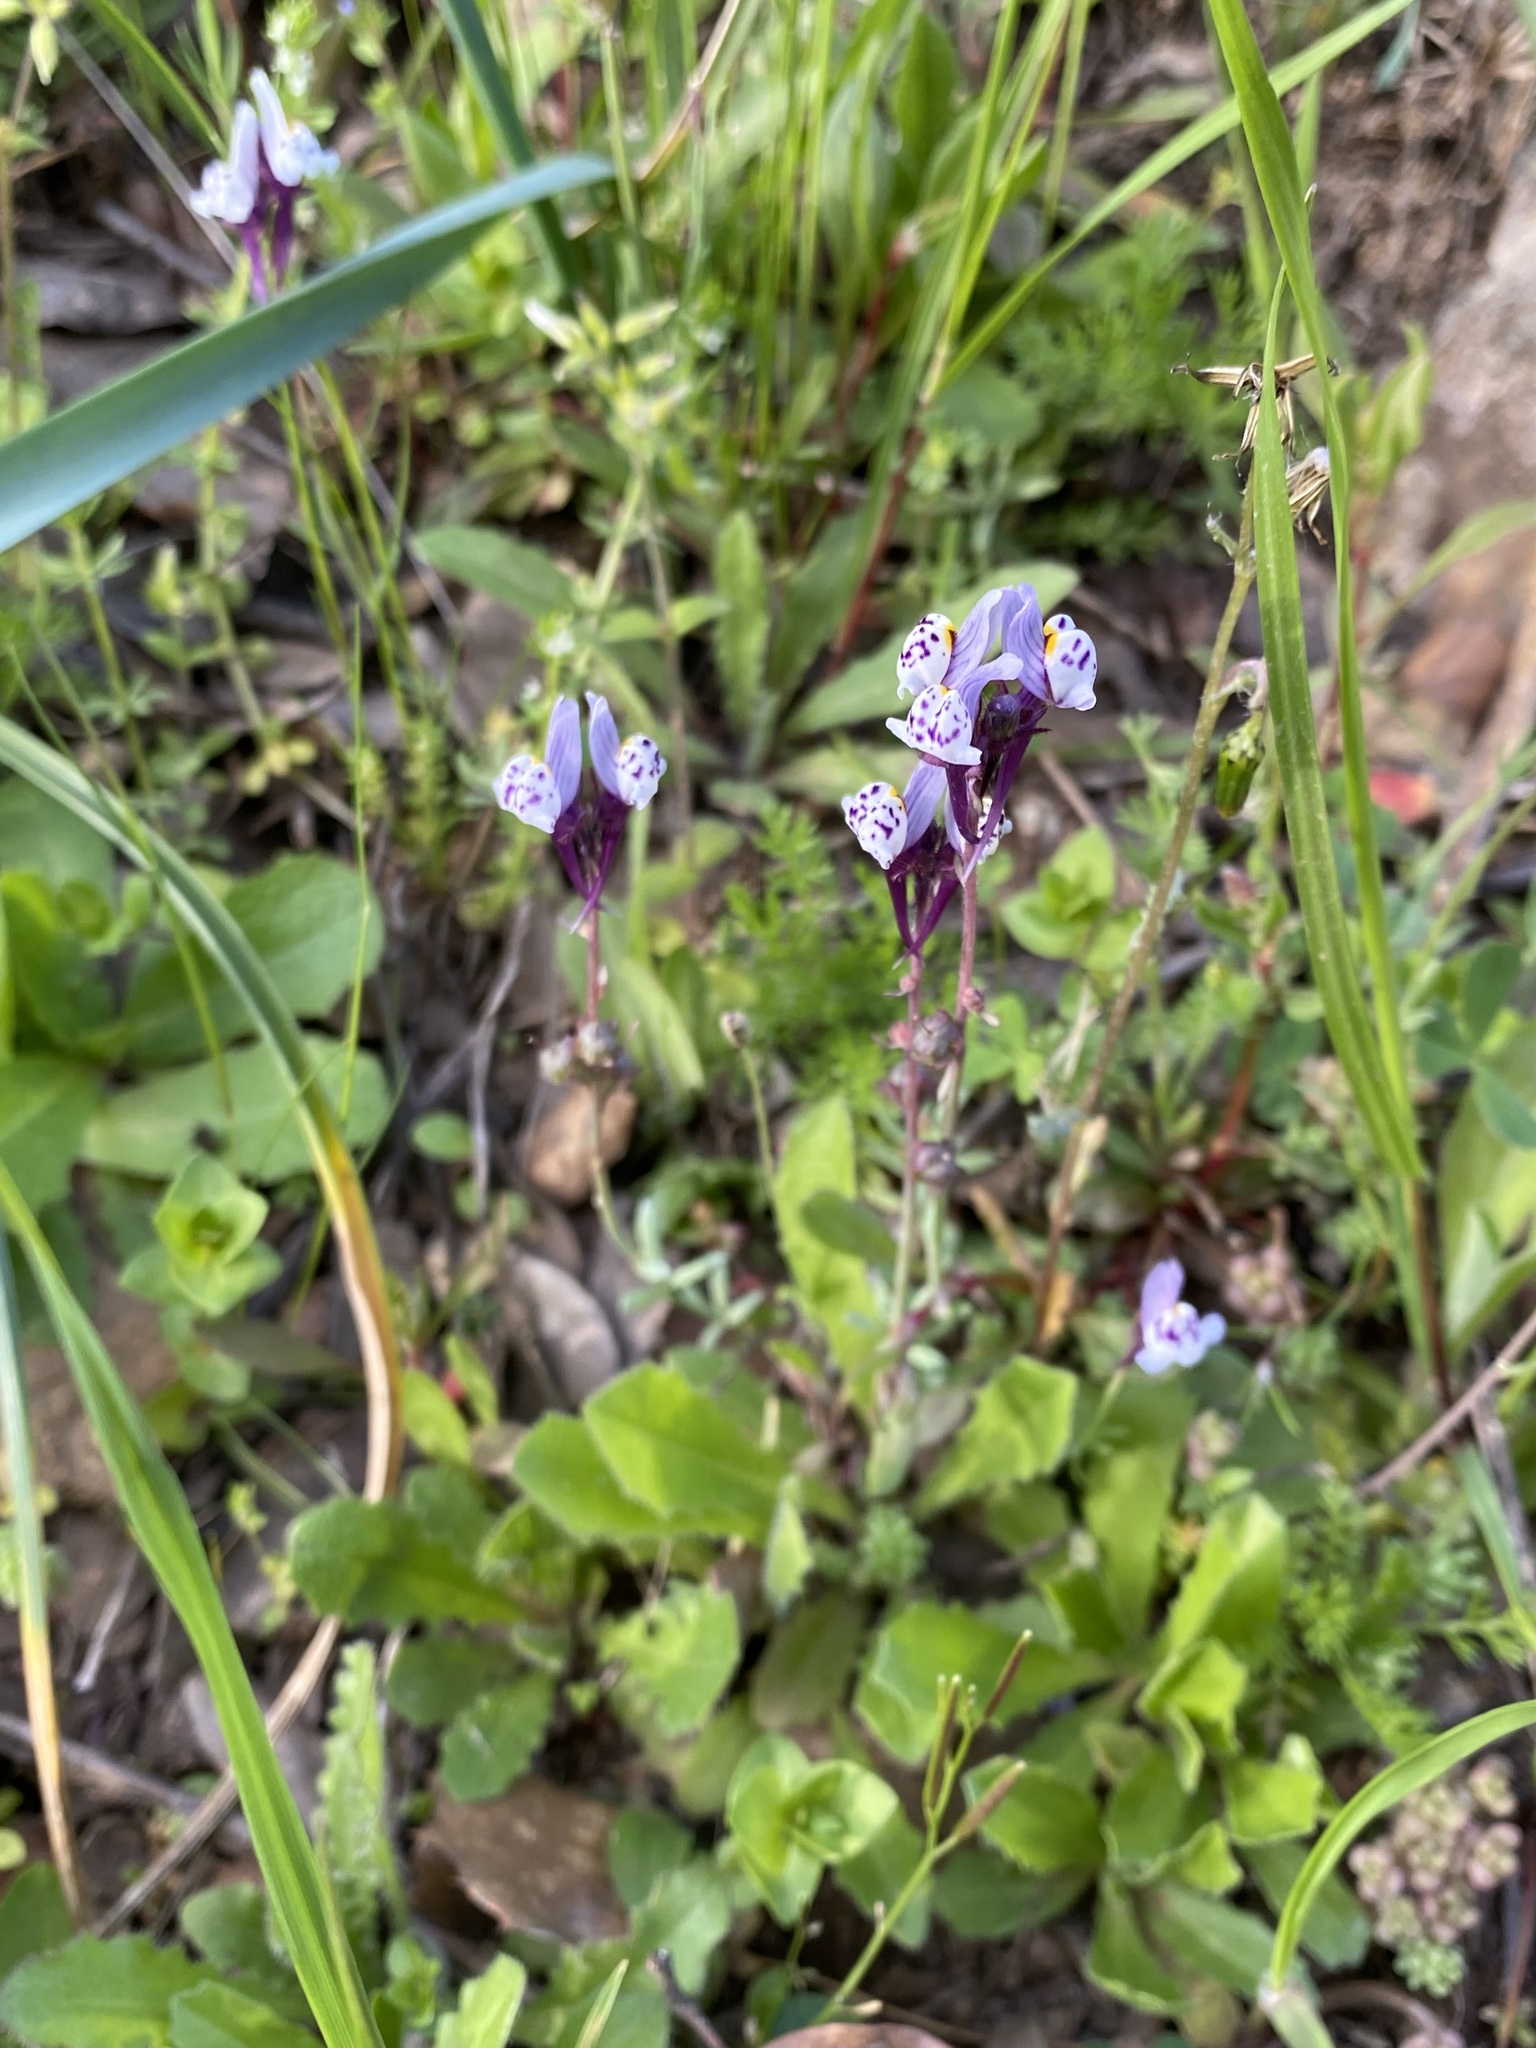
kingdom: Plantae
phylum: Tracheophyta
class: Magnoliopsida
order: Lamiales
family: Plantaginaceae
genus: Linaria
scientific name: Linaria amethystea
